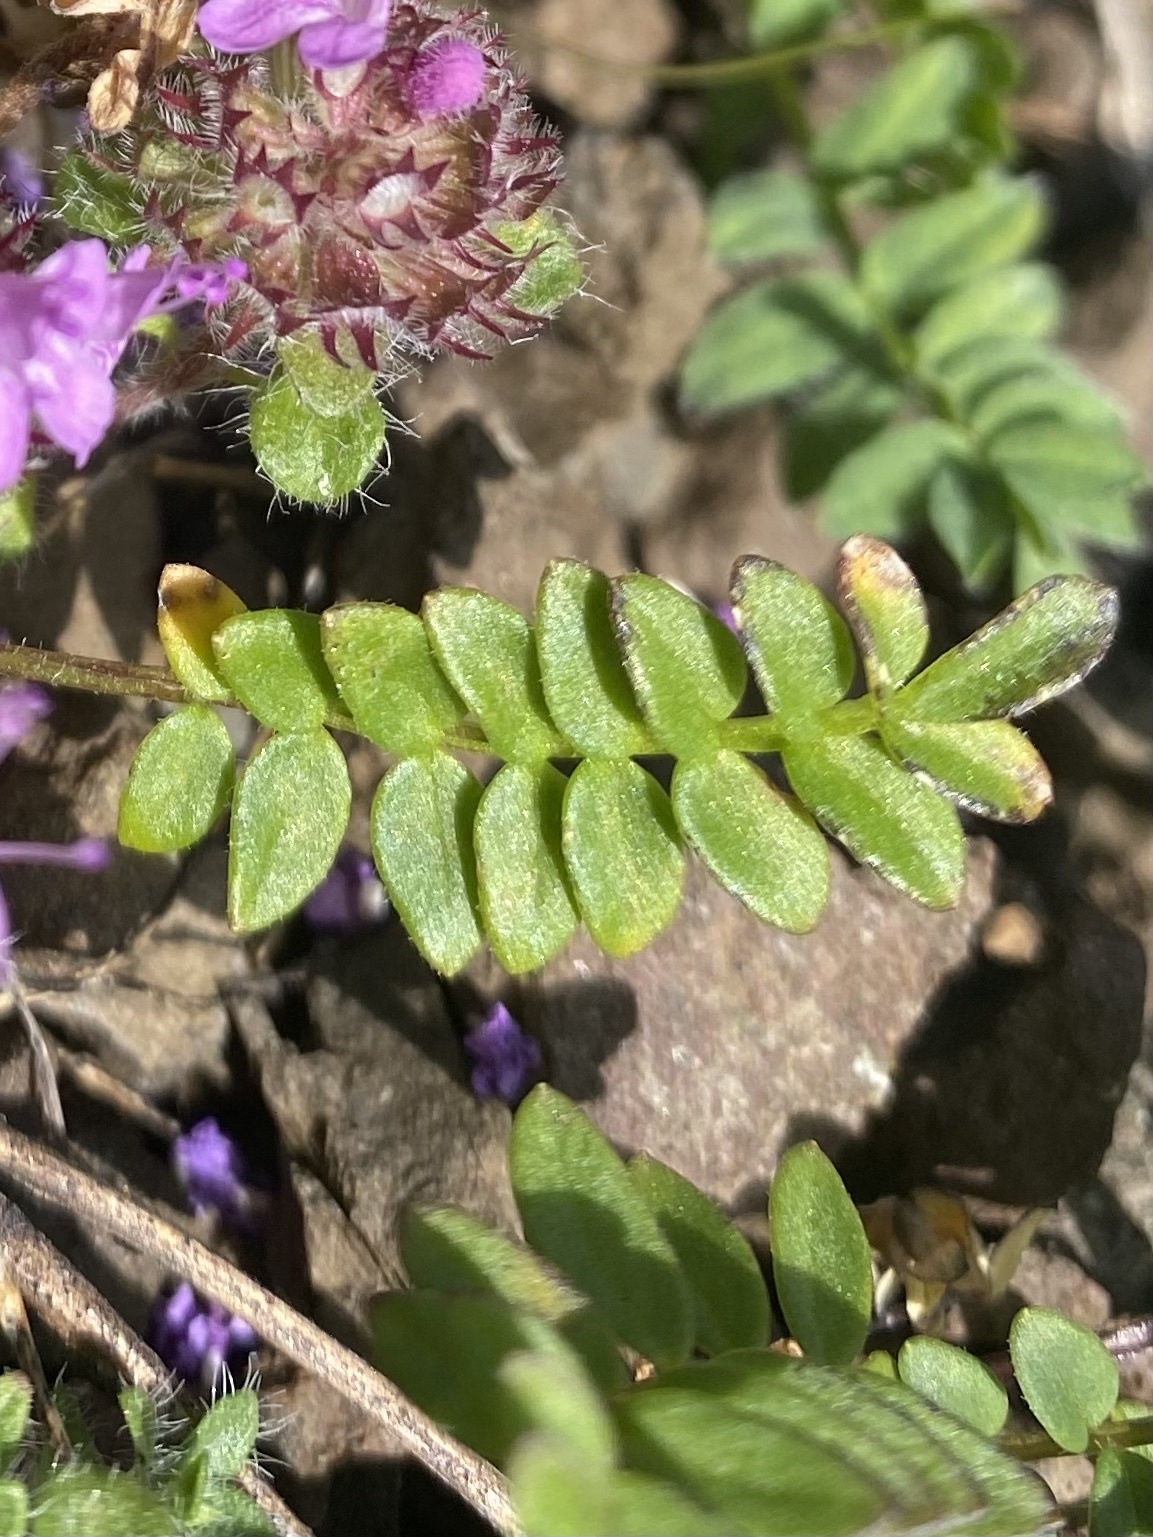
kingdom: Plantae
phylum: Tracheophyta
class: Magnoliopsida
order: Ericales
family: Polemoniaceae
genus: Polemonium
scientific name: Polemonium boreale
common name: Boreal jacob's-ladder
